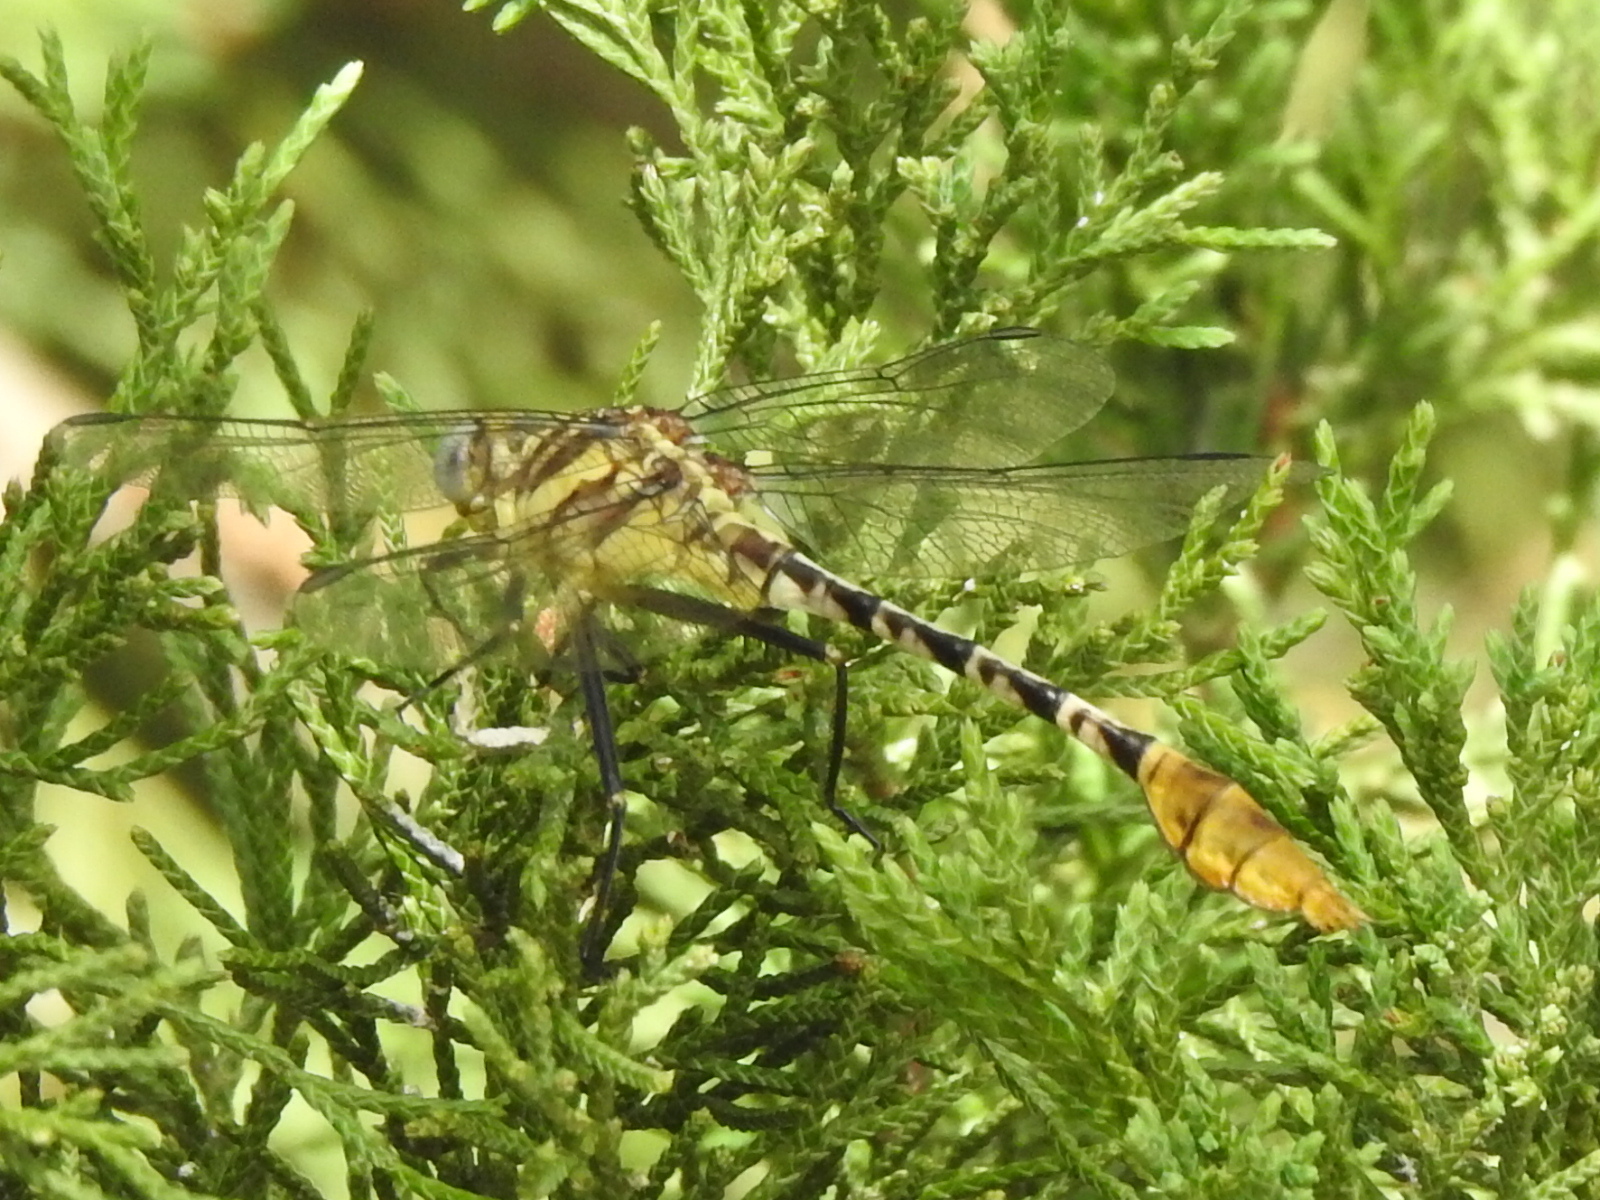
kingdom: Animalia
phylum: Arthropoda
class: Insecta
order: Odonata
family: Gomphidae
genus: Dromogomphus
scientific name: Dromogomphus spoliatus
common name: Flag-tailed spinyleg
